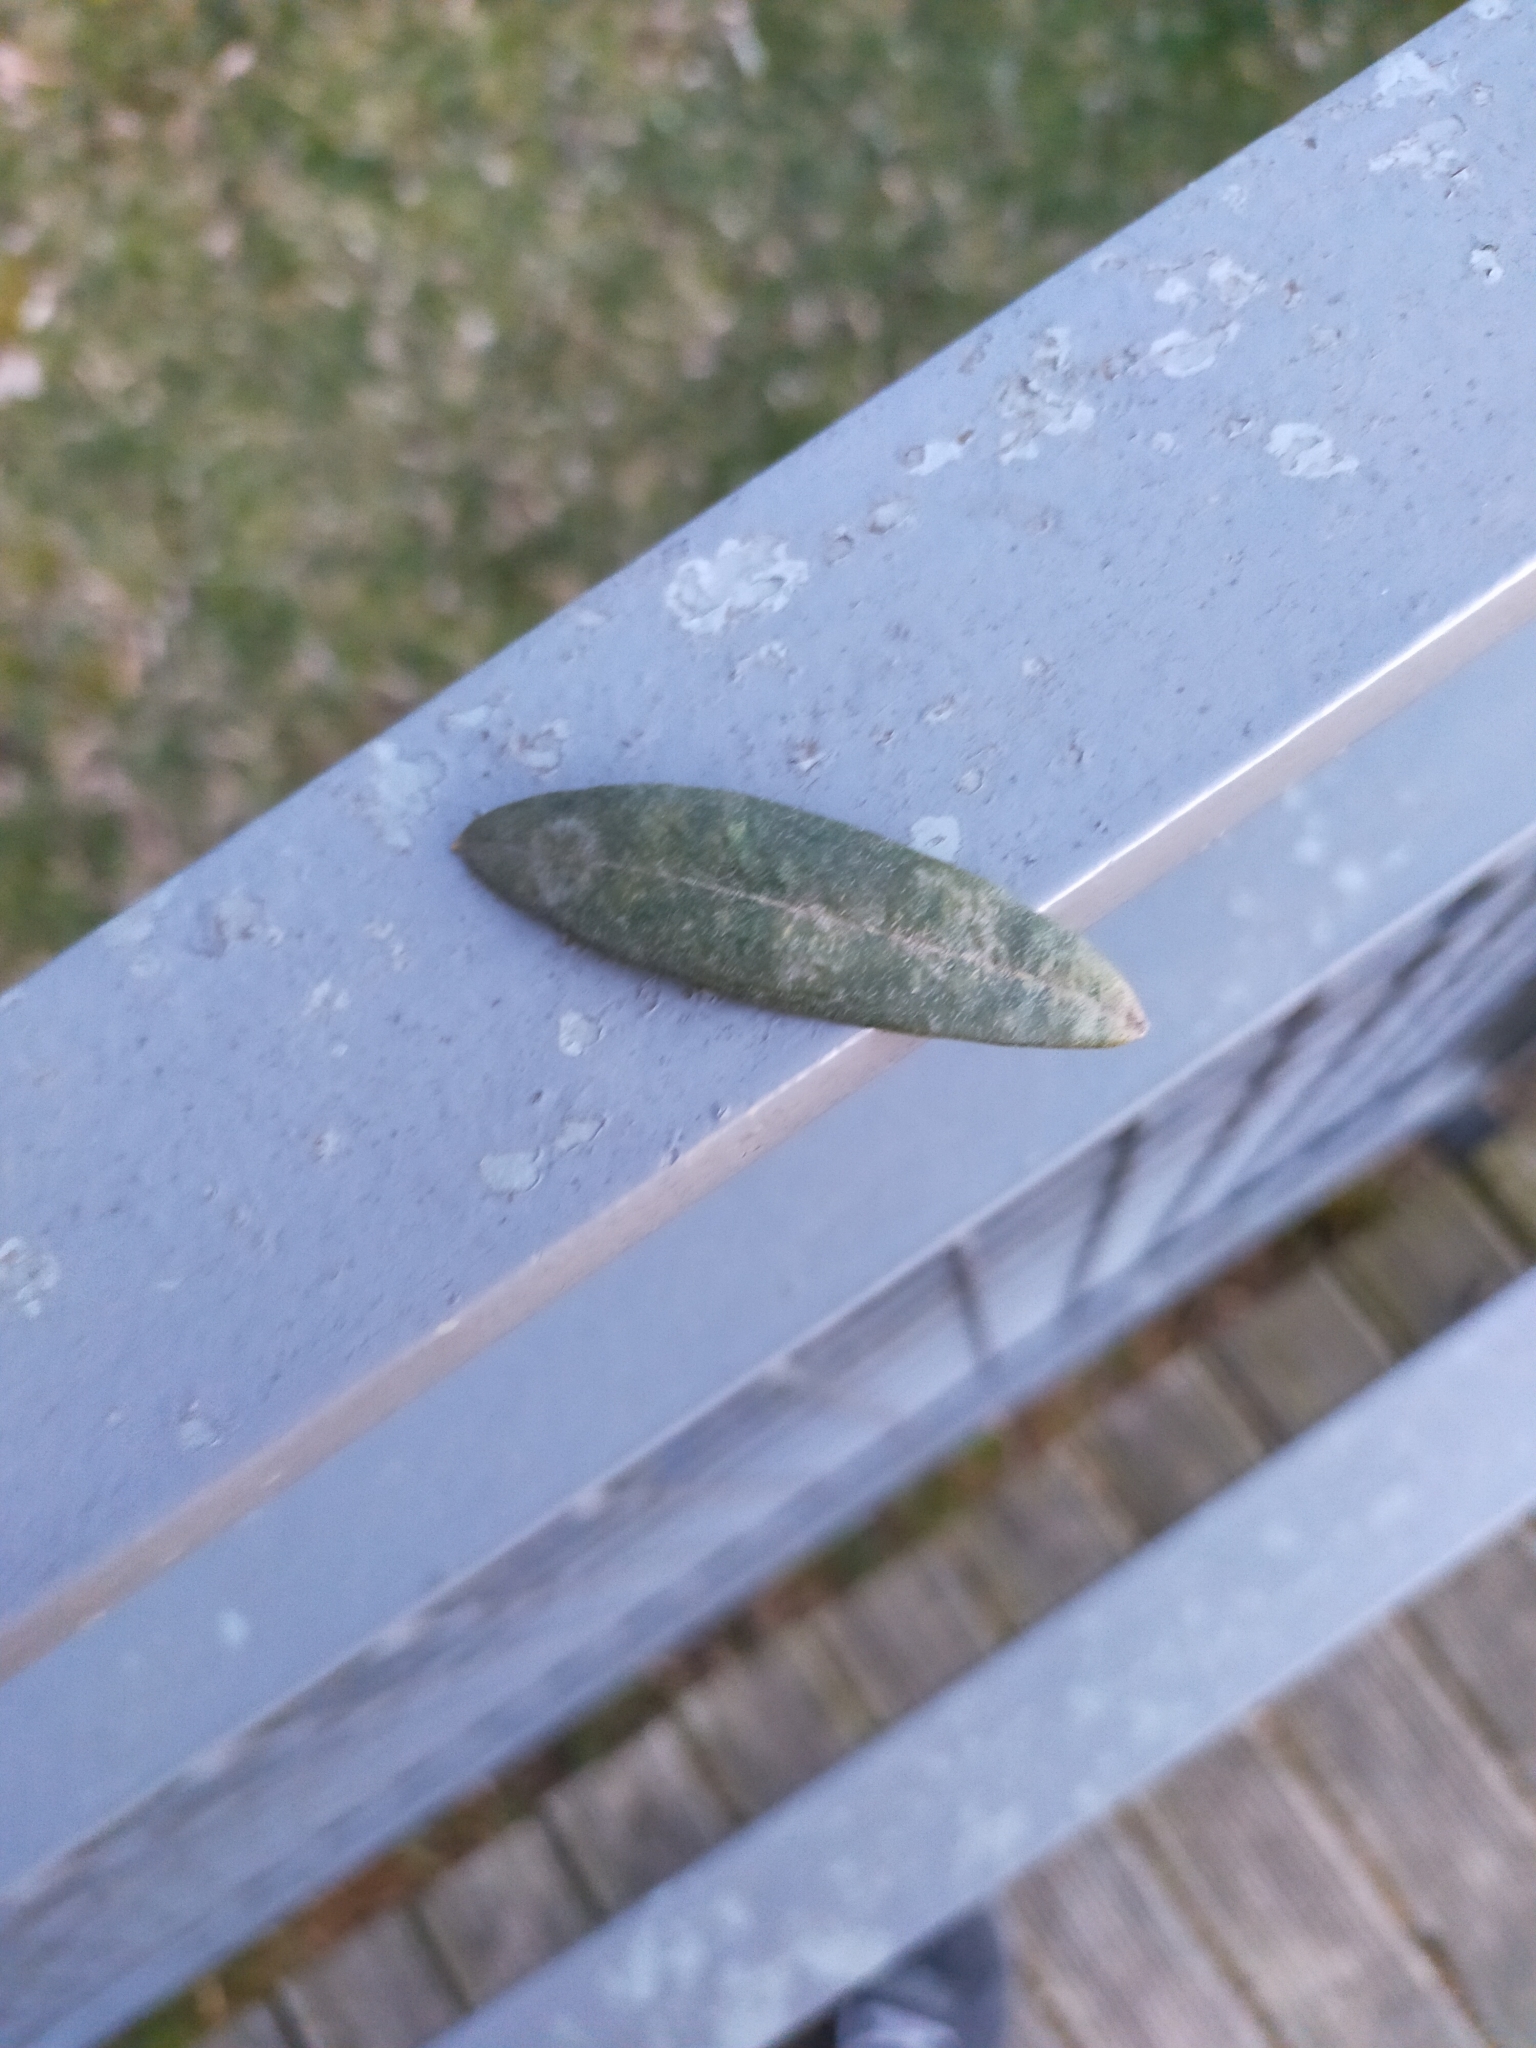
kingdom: Plantae
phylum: Tracheophyta
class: Magnoliopsida
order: Lamiales
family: Oleaceae
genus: Olea
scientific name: Olea europaea
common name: Olive
